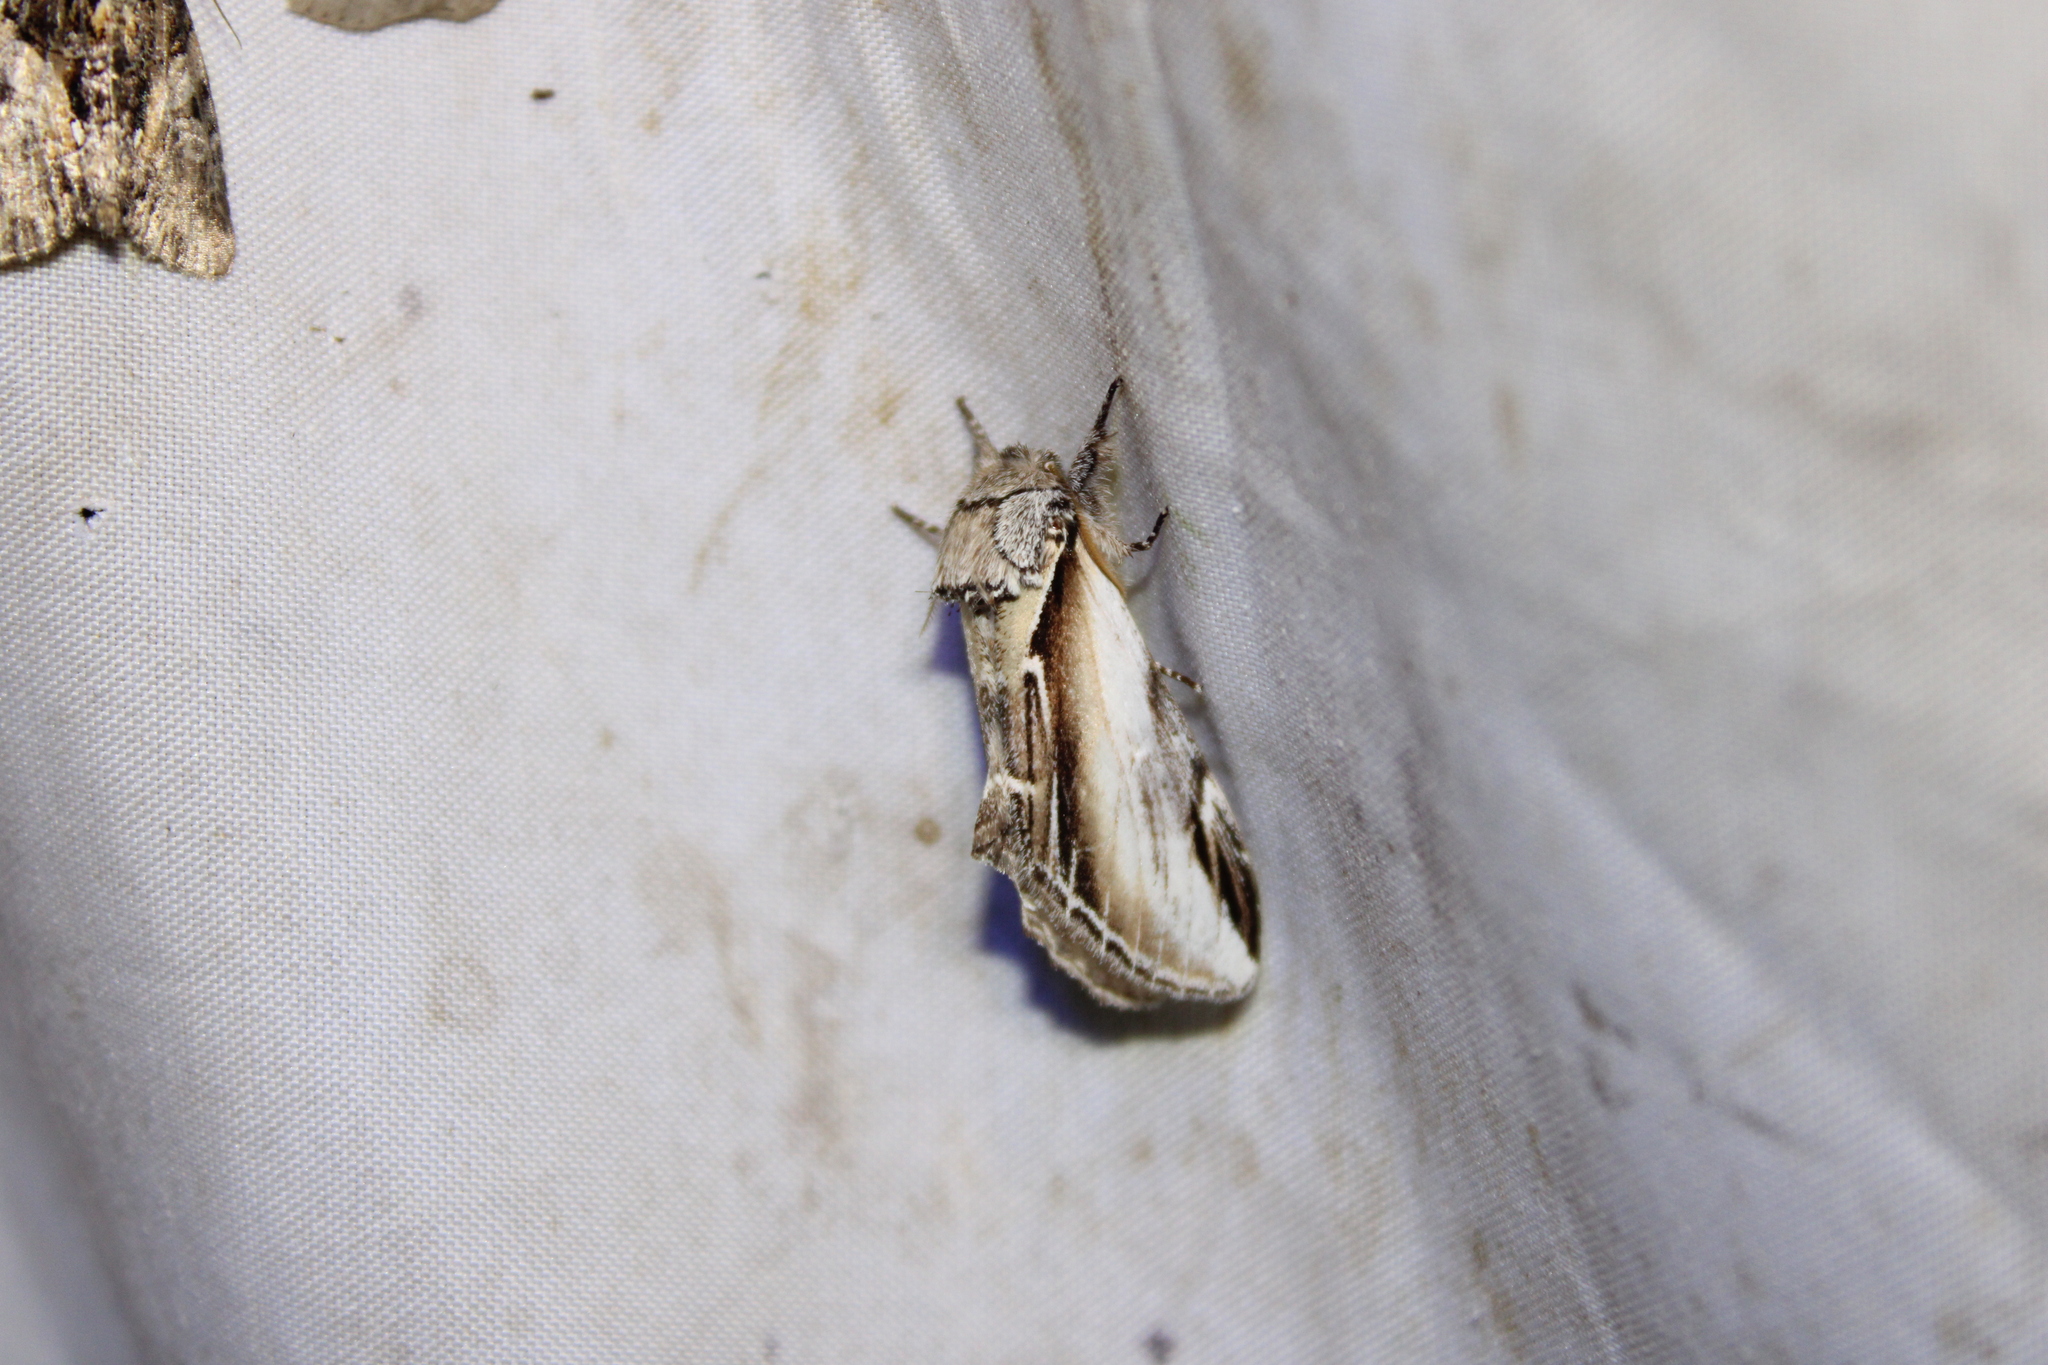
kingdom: Animalia
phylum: Arthropoda
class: Insecta
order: Lepidoptera
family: Notodontidae
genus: Pheosia
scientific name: Pheosia rimosa
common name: Black-rimmed prominent
